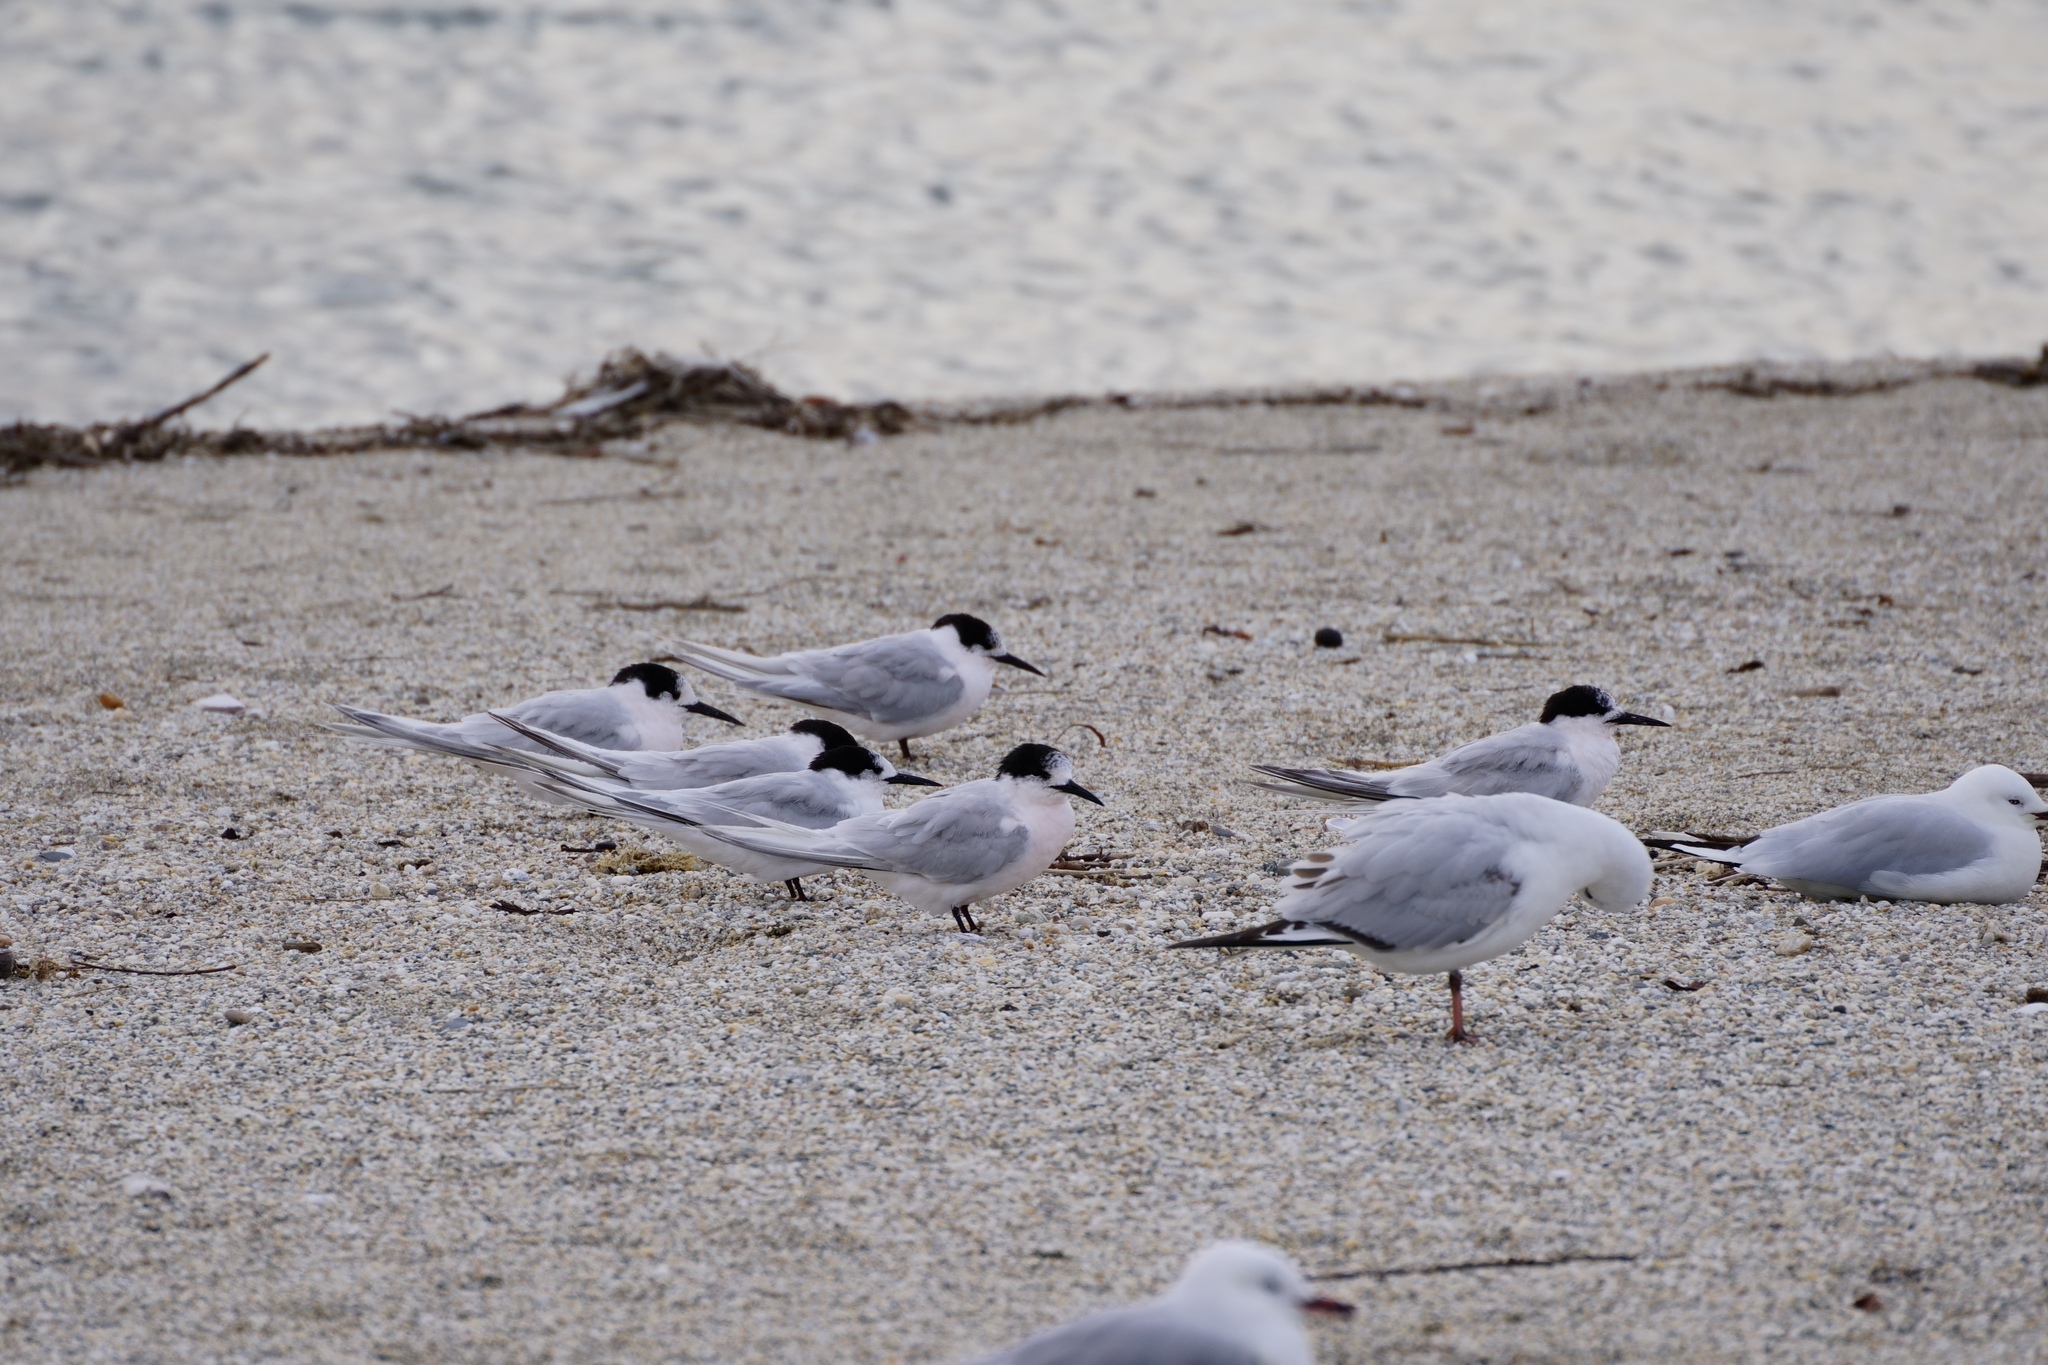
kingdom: Animalia
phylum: Chordata
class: Aves
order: Charadriiformes
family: Laridae
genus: Sterna
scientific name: Sterna striata
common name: White-fronted tern
